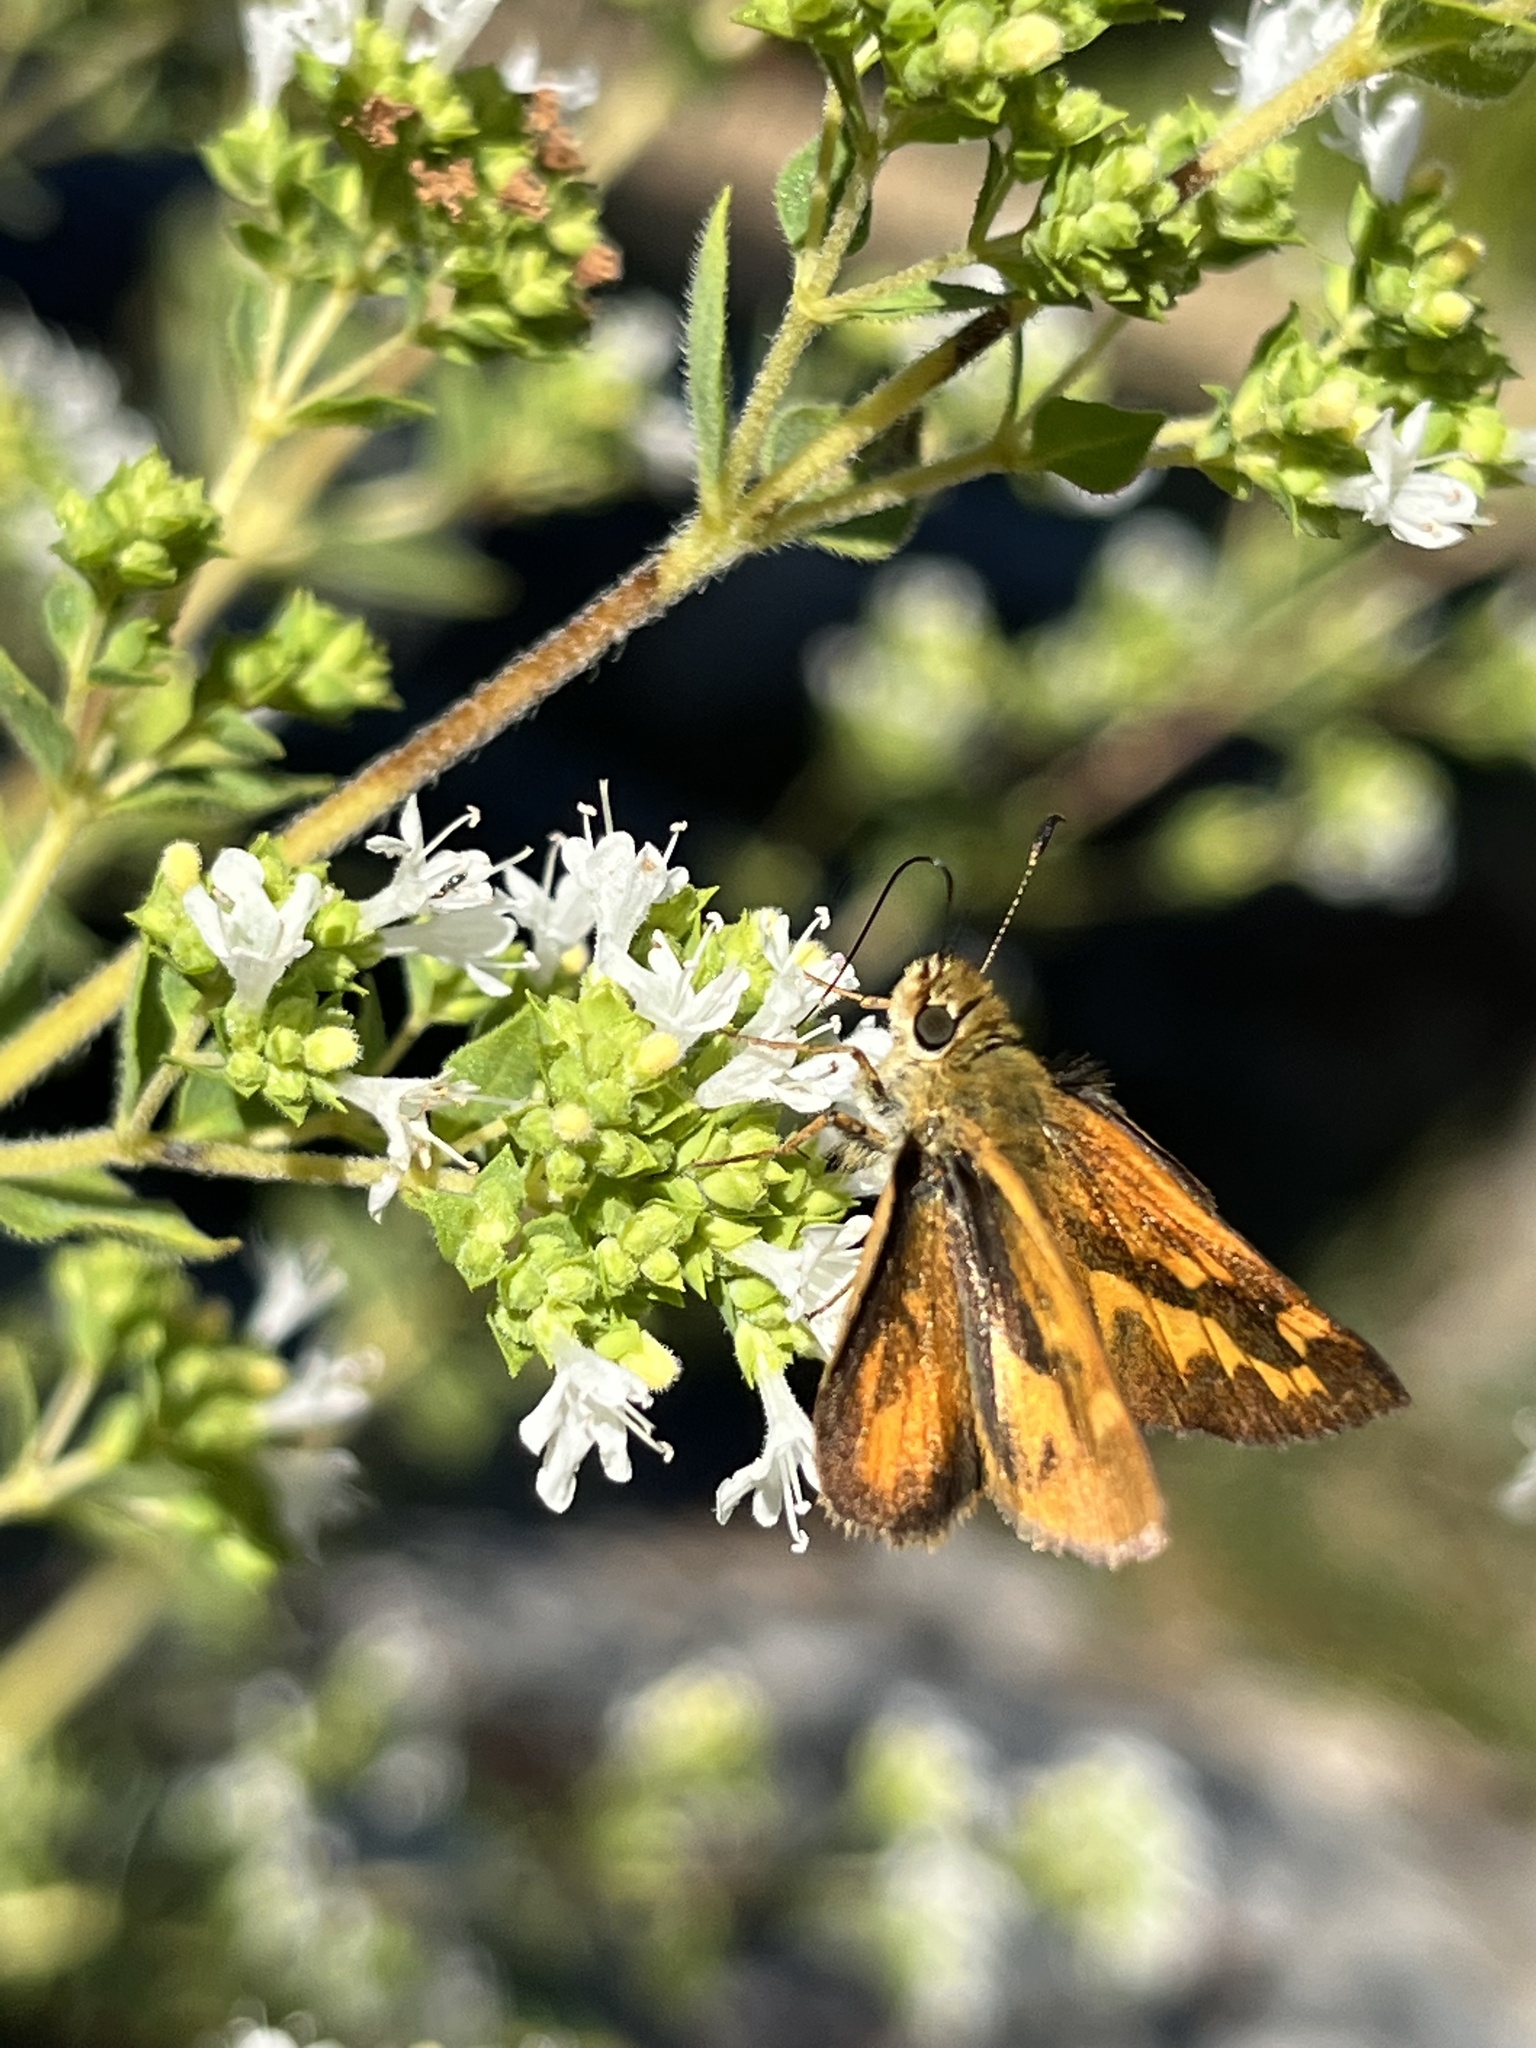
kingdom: Animalia
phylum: Arthropoda
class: Insecta
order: Lepidoptera
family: Hesperiidae
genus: Ochlodes
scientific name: Ochlodes sylvanoides
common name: Woodland skipper
